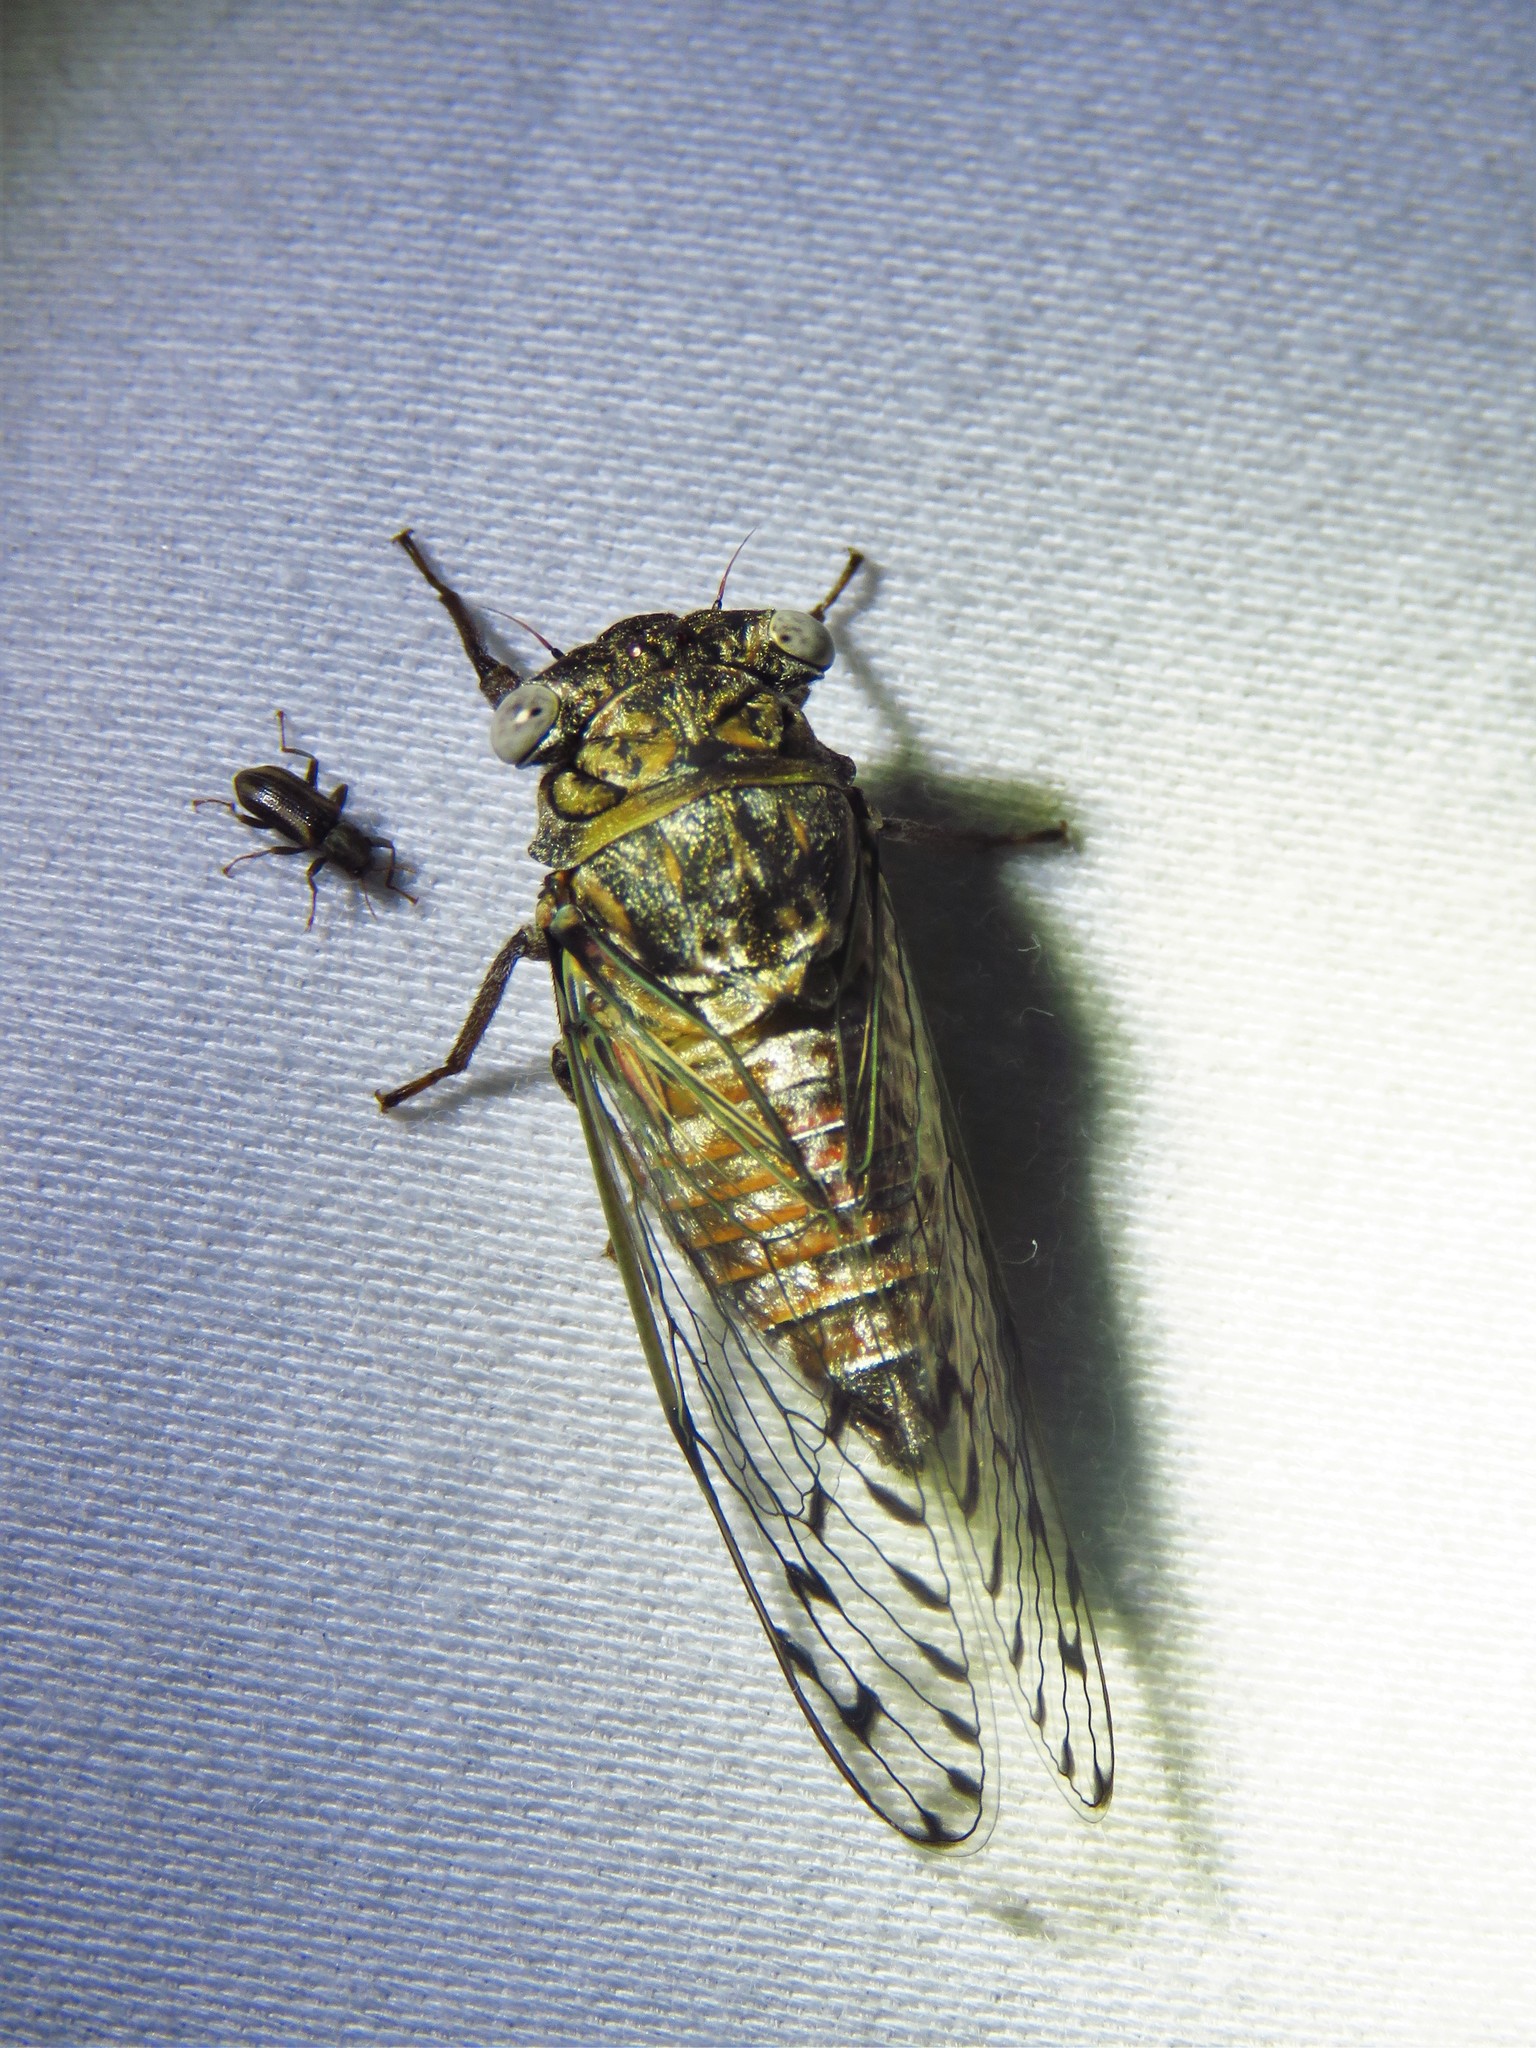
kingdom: Animalia
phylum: Arthropoda
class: Insecta
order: Hemiptera
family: Cicadidae
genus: Pacarina
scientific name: Pacarina puella
